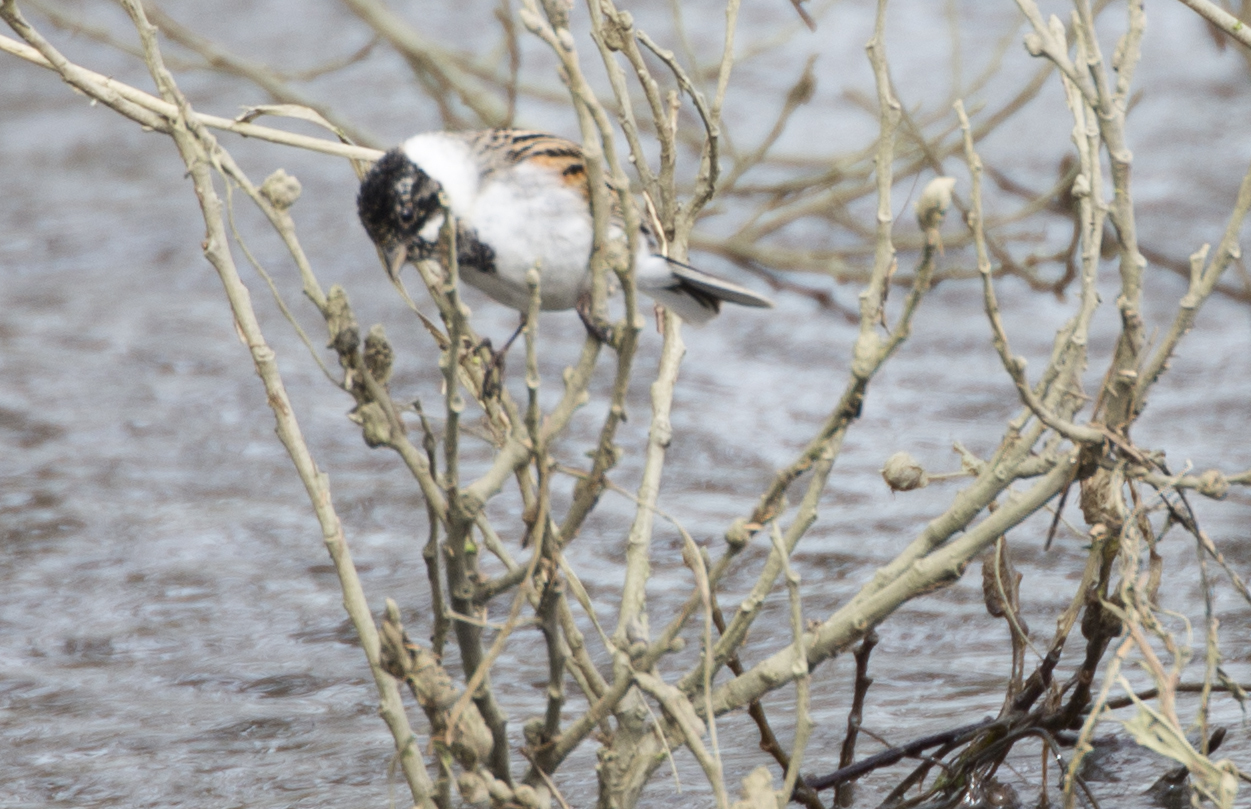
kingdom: Animalia
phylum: Chordata
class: Aves
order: Passeriformes
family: Emberizidae
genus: Emberiza
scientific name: Emberiza schoeniclus
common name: Reed bunting
